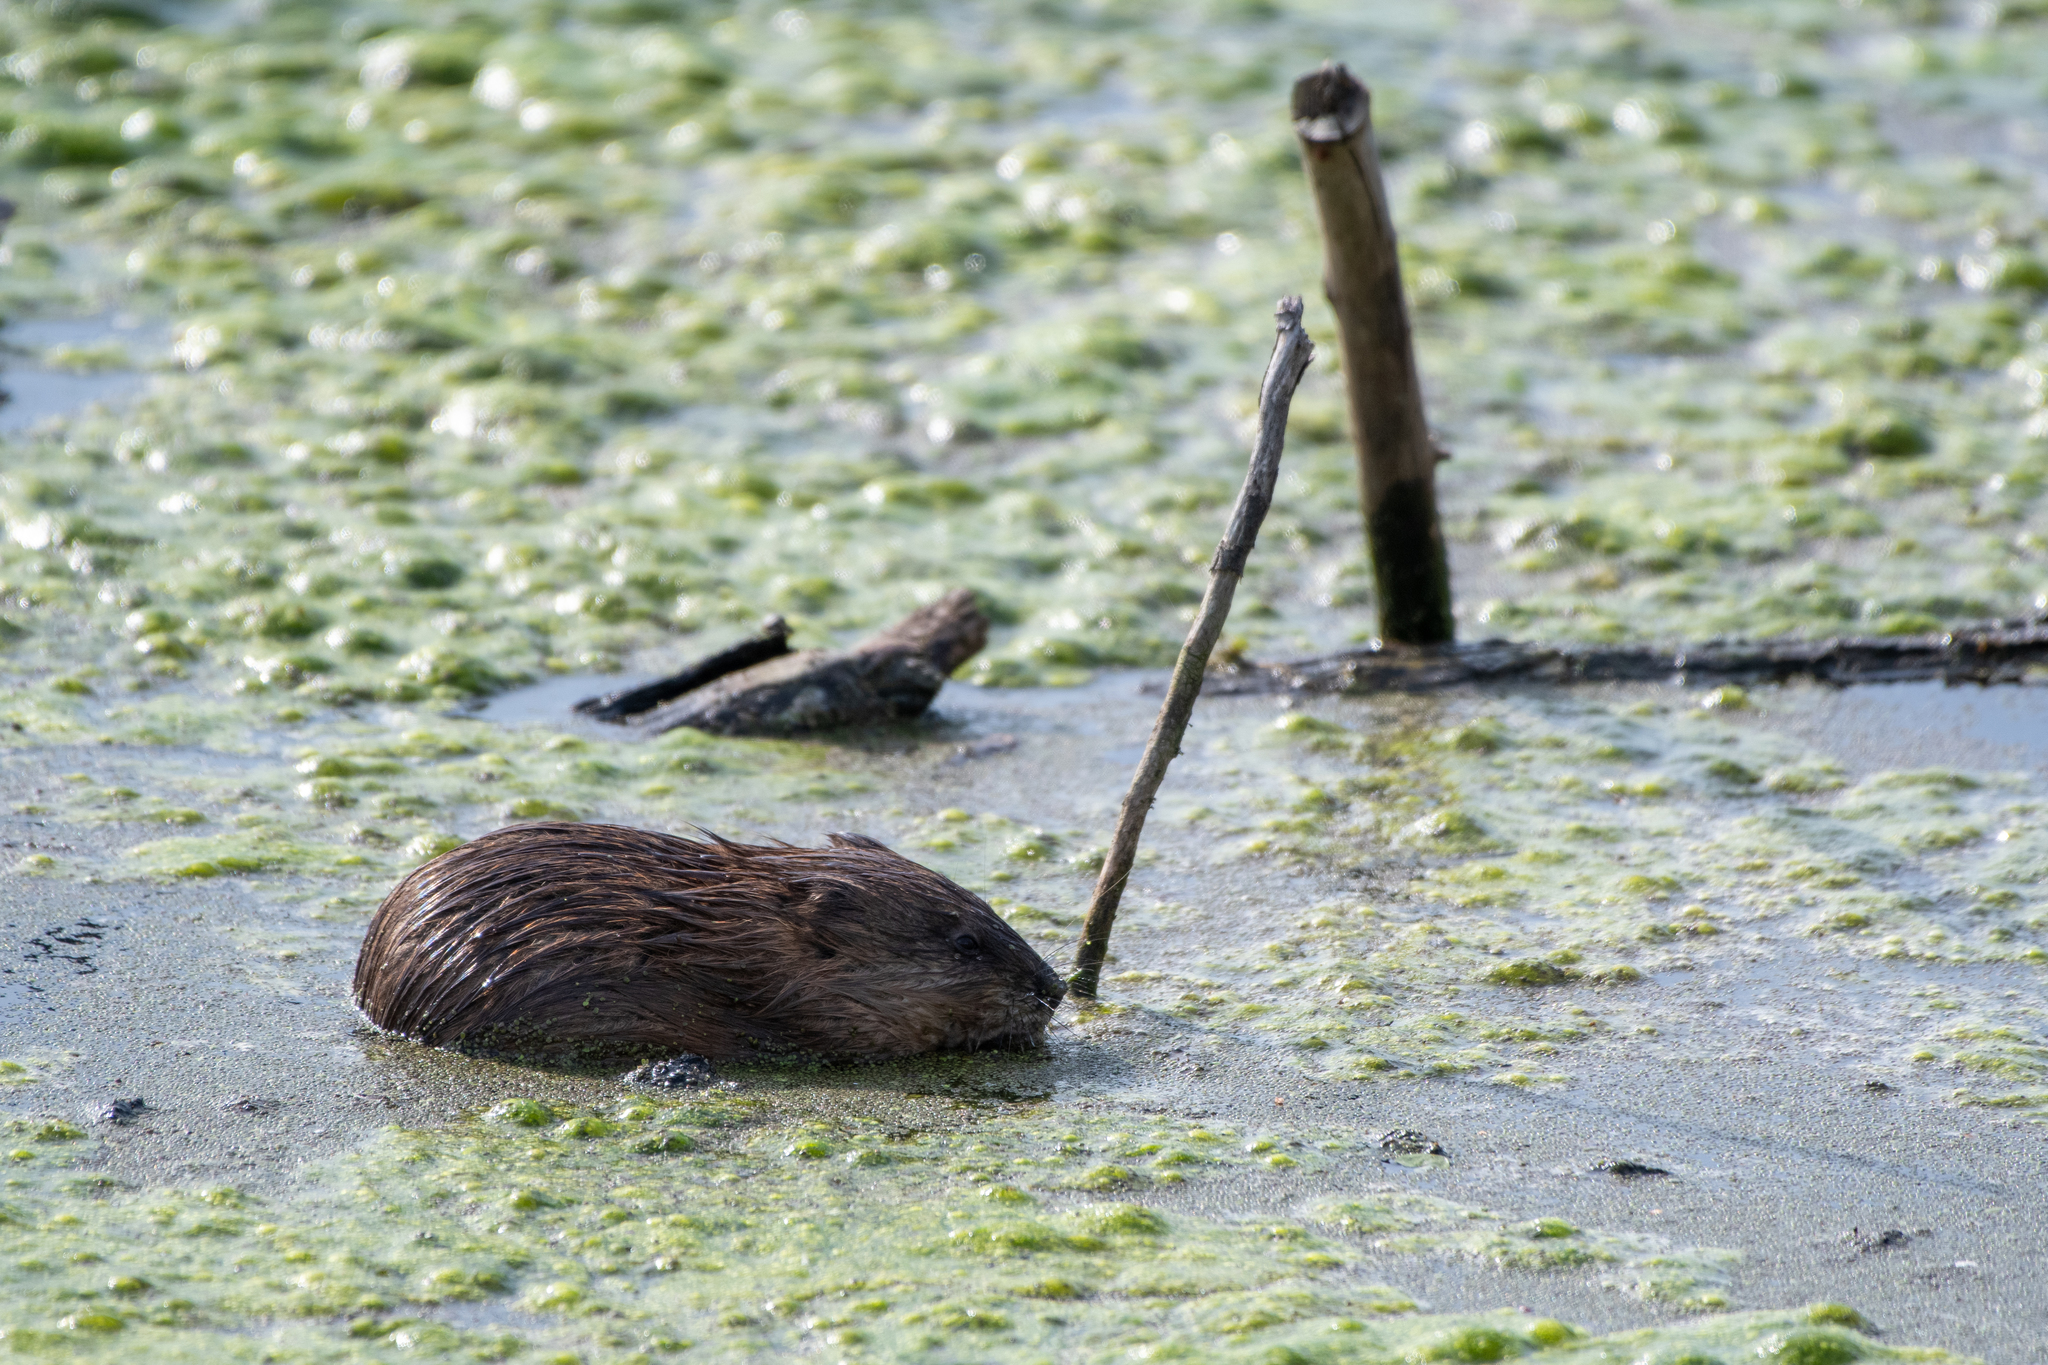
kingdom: Animalia
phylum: Chordata
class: Mammalia
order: Rodentia
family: Cricetidae
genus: Ondatra
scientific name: Ondatra zibethicus
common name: Muskrat
